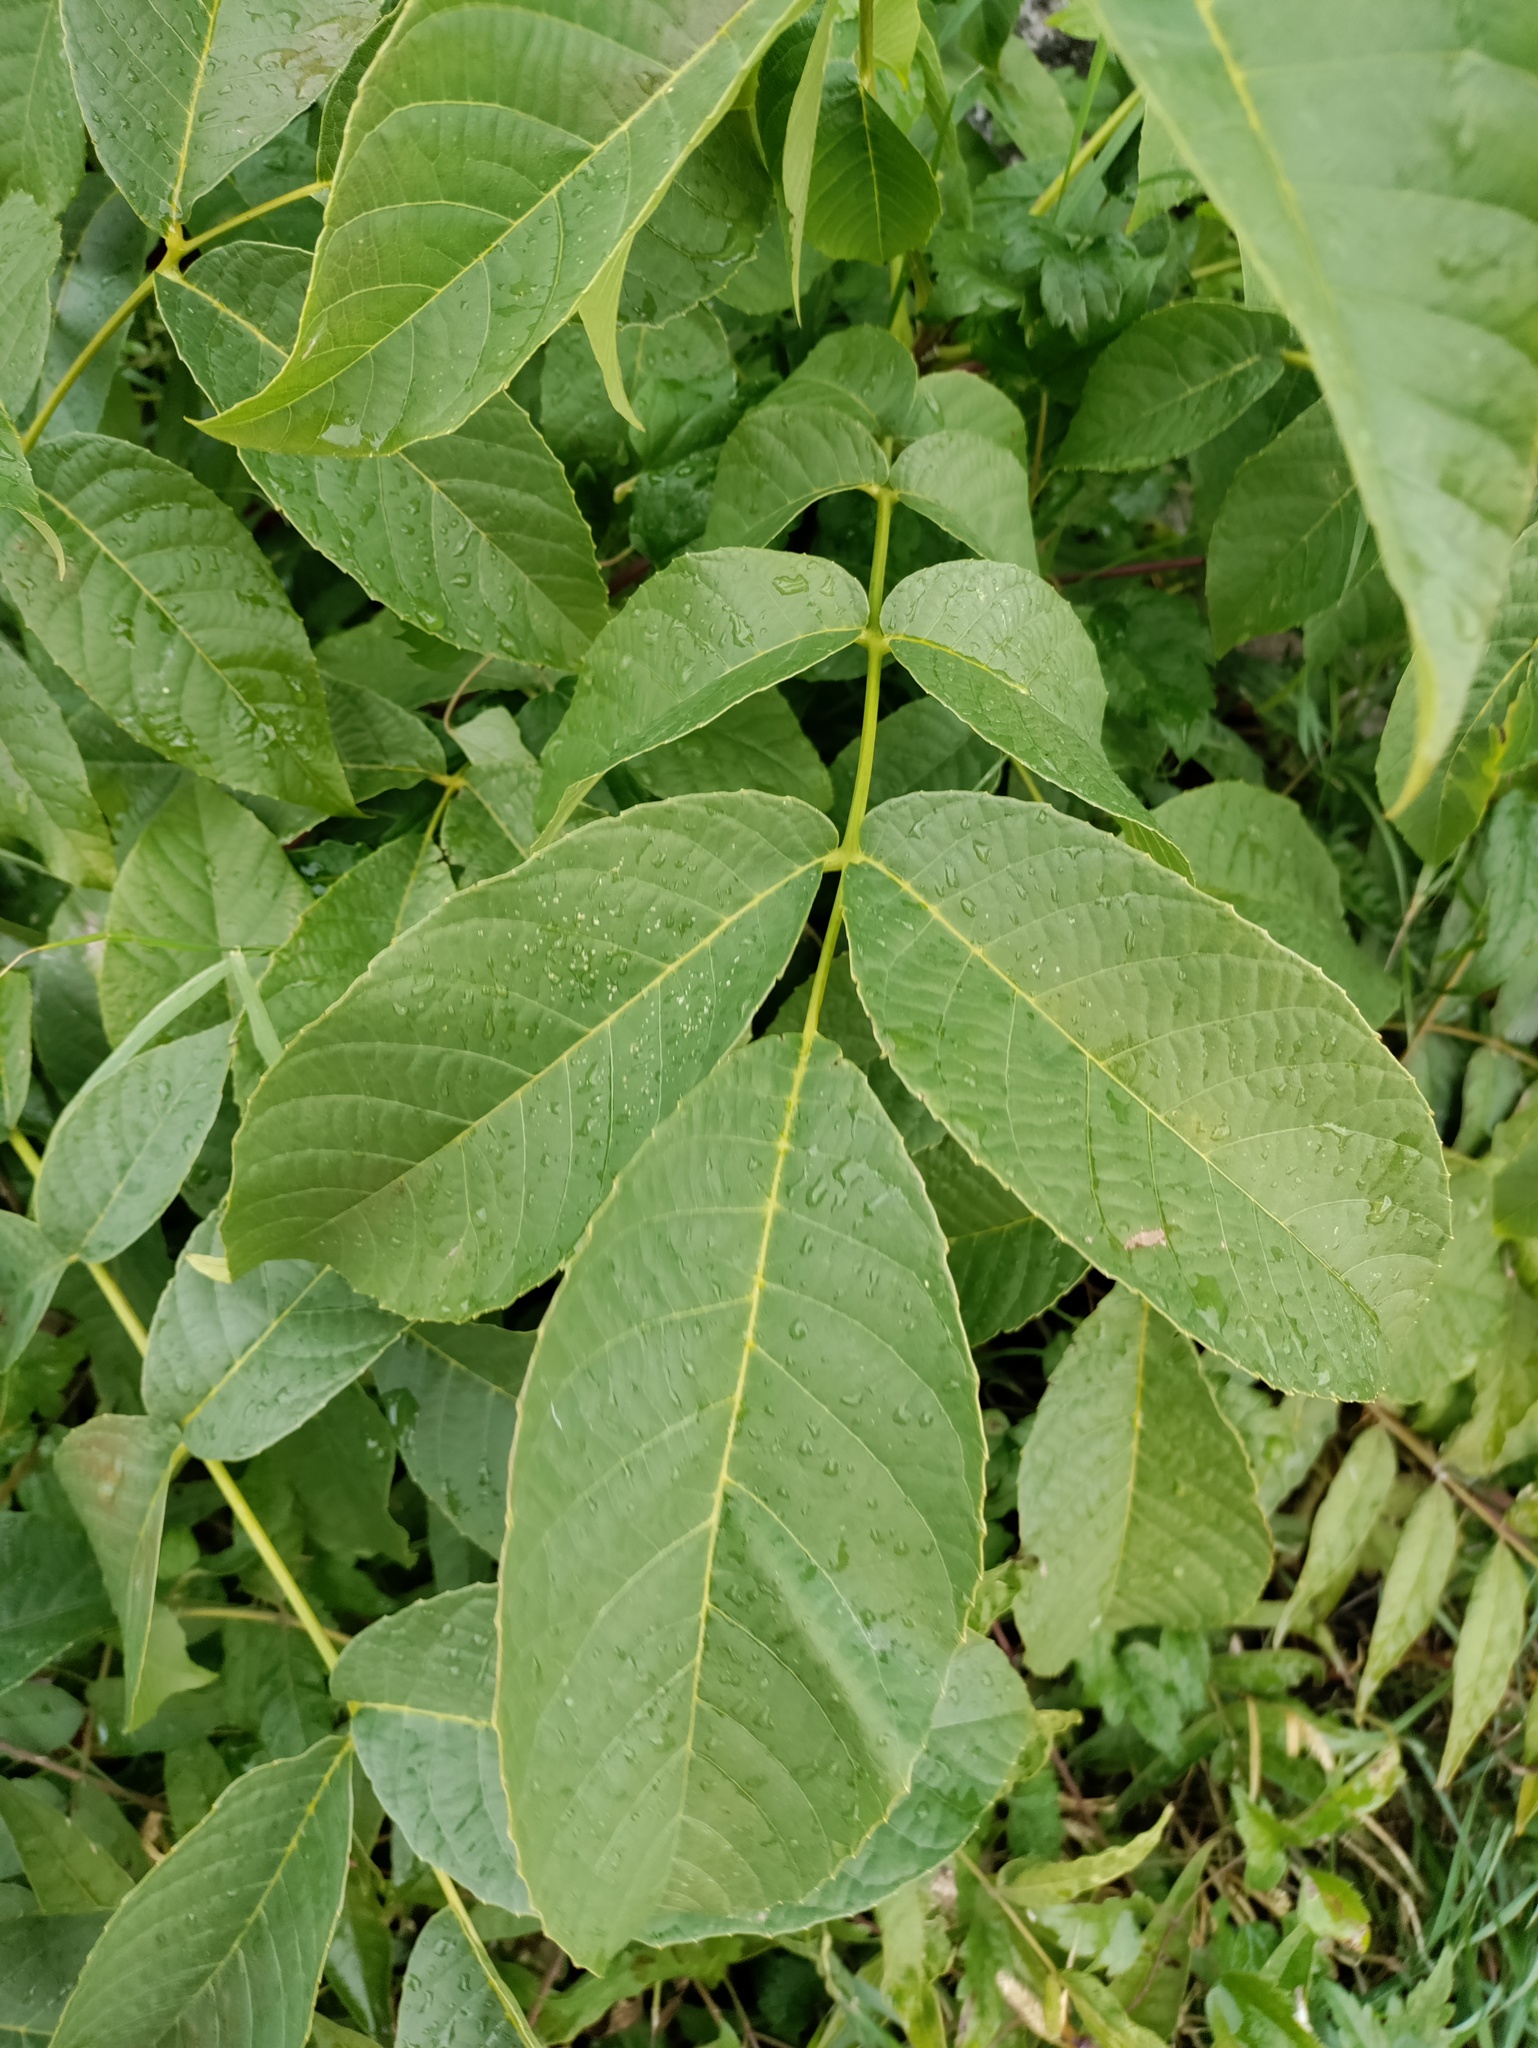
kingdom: Plantae
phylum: Tracheophyta
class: Magnoliopsida
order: Fagales
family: Juglandaceae
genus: Juglans
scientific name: Juglans regia
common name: Walnut
